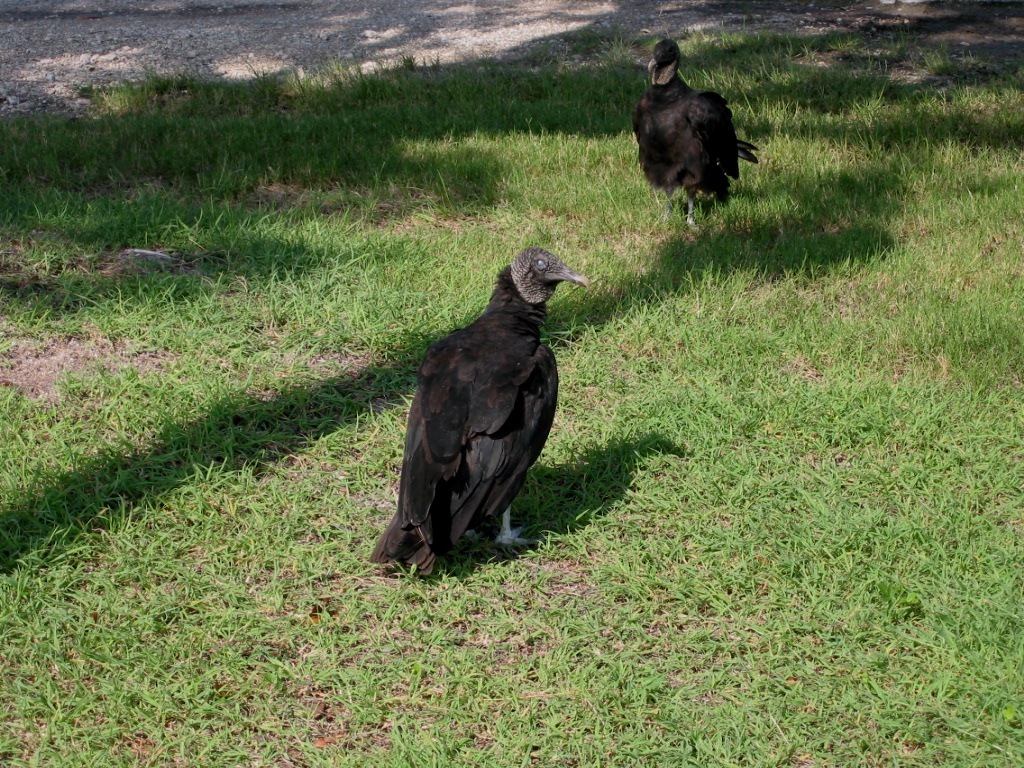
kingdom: Animalia
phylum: Chordata
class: Aves
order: Accipitriformes
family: Cathartidae
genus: Coragyps
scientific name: Coragyps atratus
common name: Black vulture
